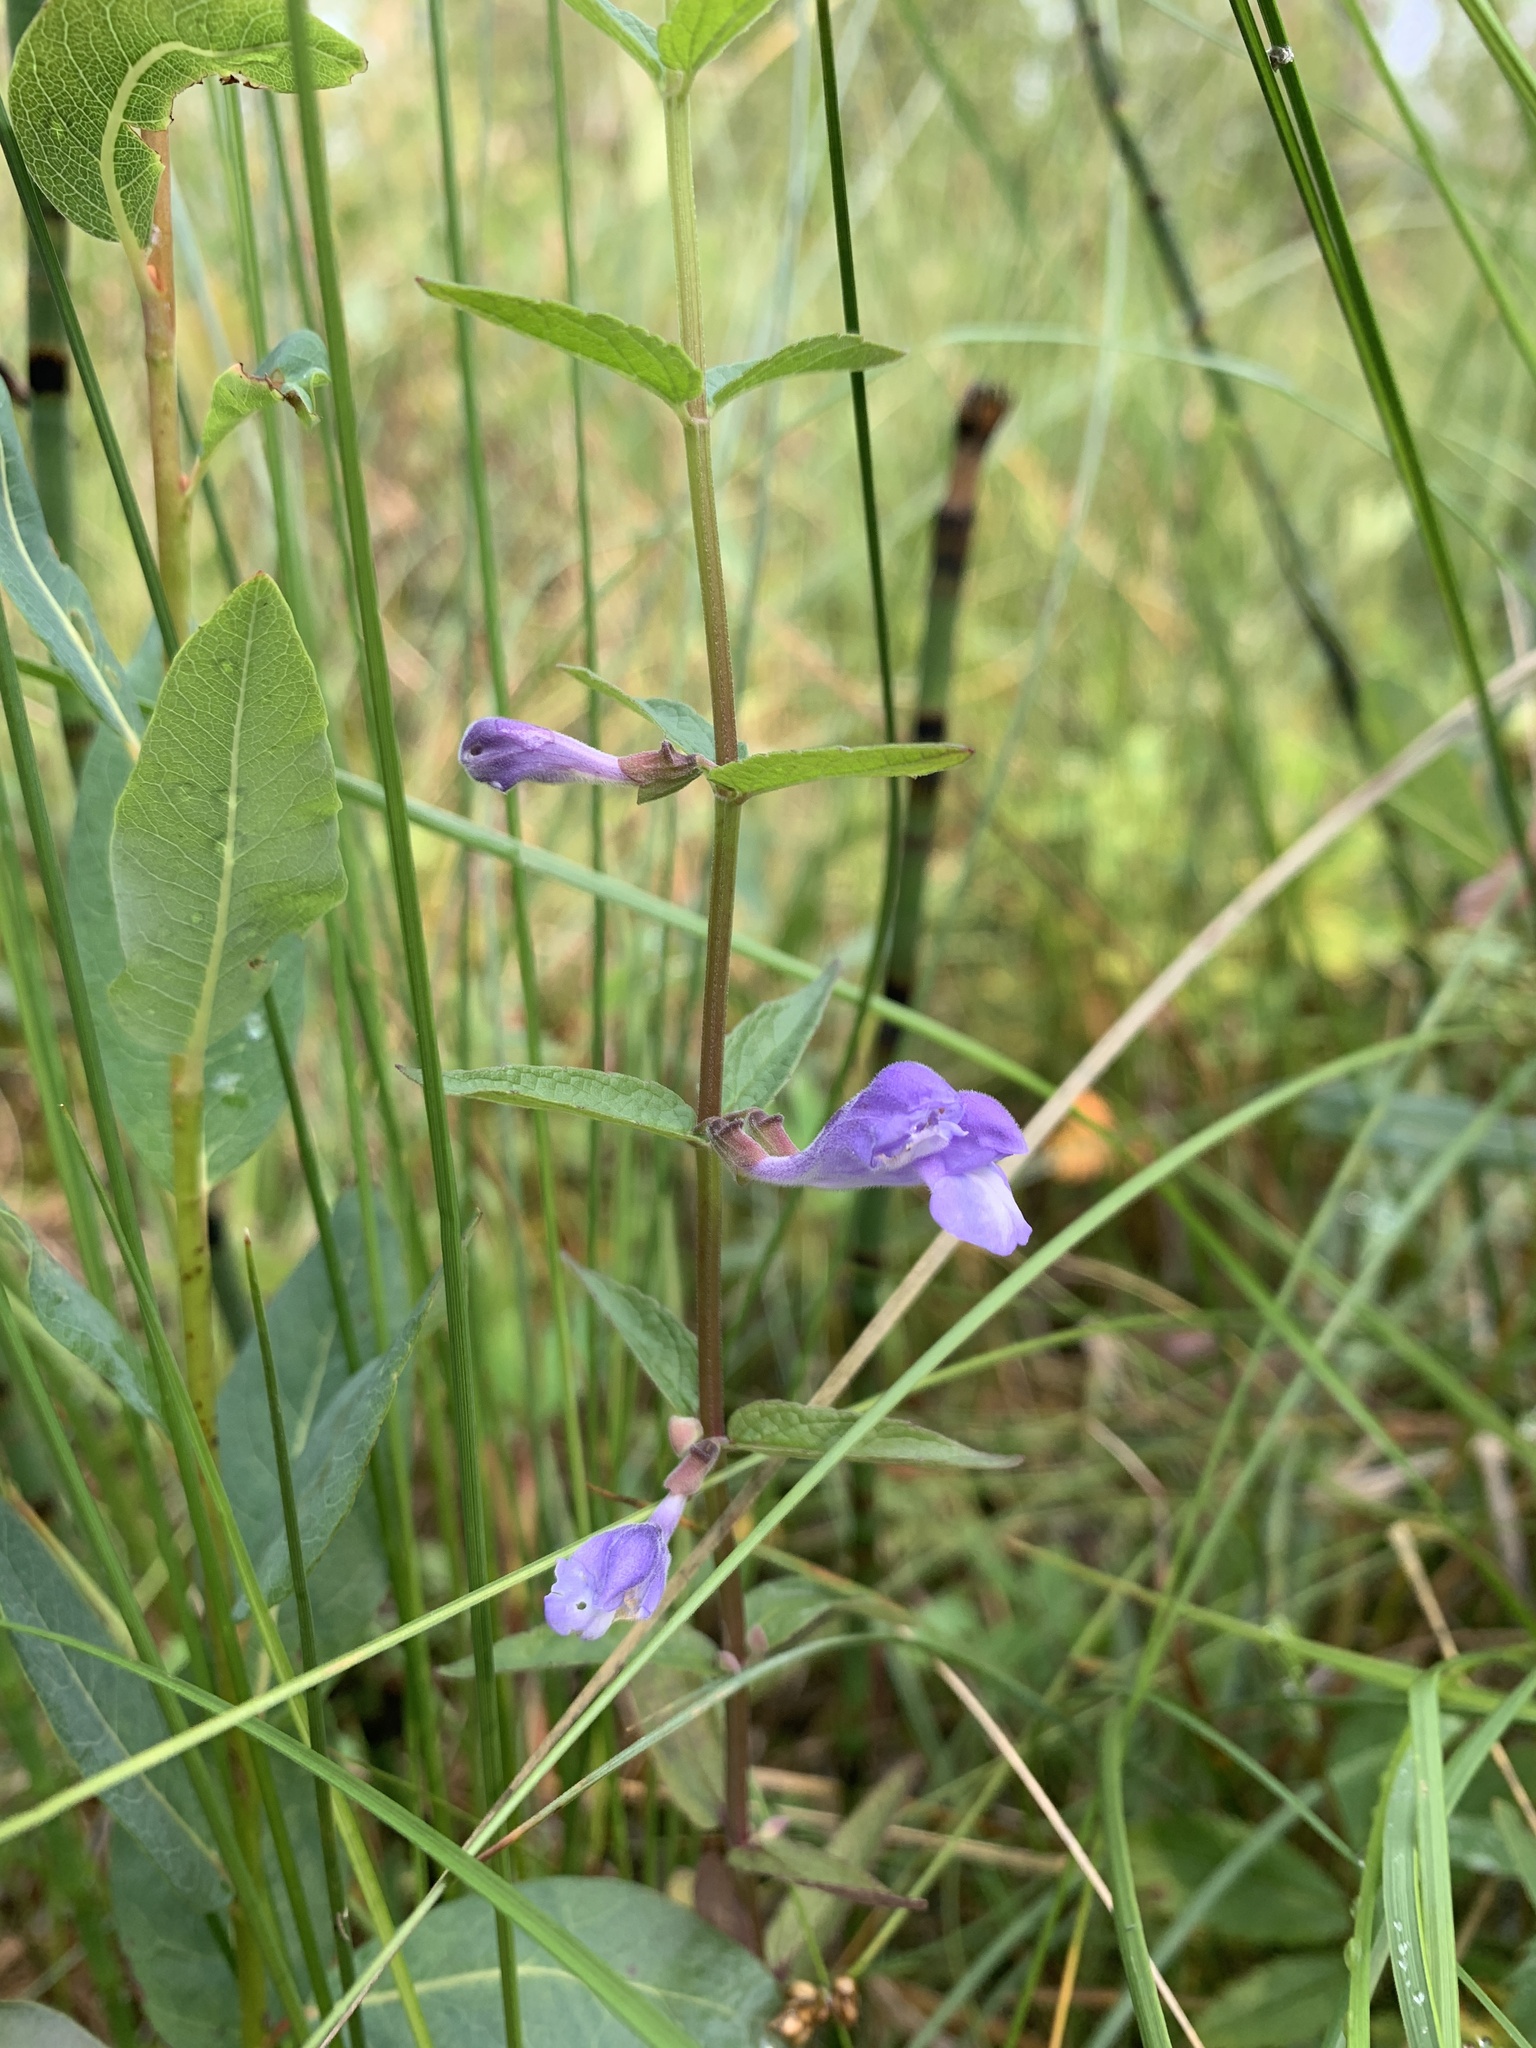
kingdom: Plantae
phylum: Tracheophyta
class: Magnoliopsida
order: Lamiales
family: Lamiaceae
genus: Scutellaria
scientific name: Scutellaria galericulata
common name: Skullcap
